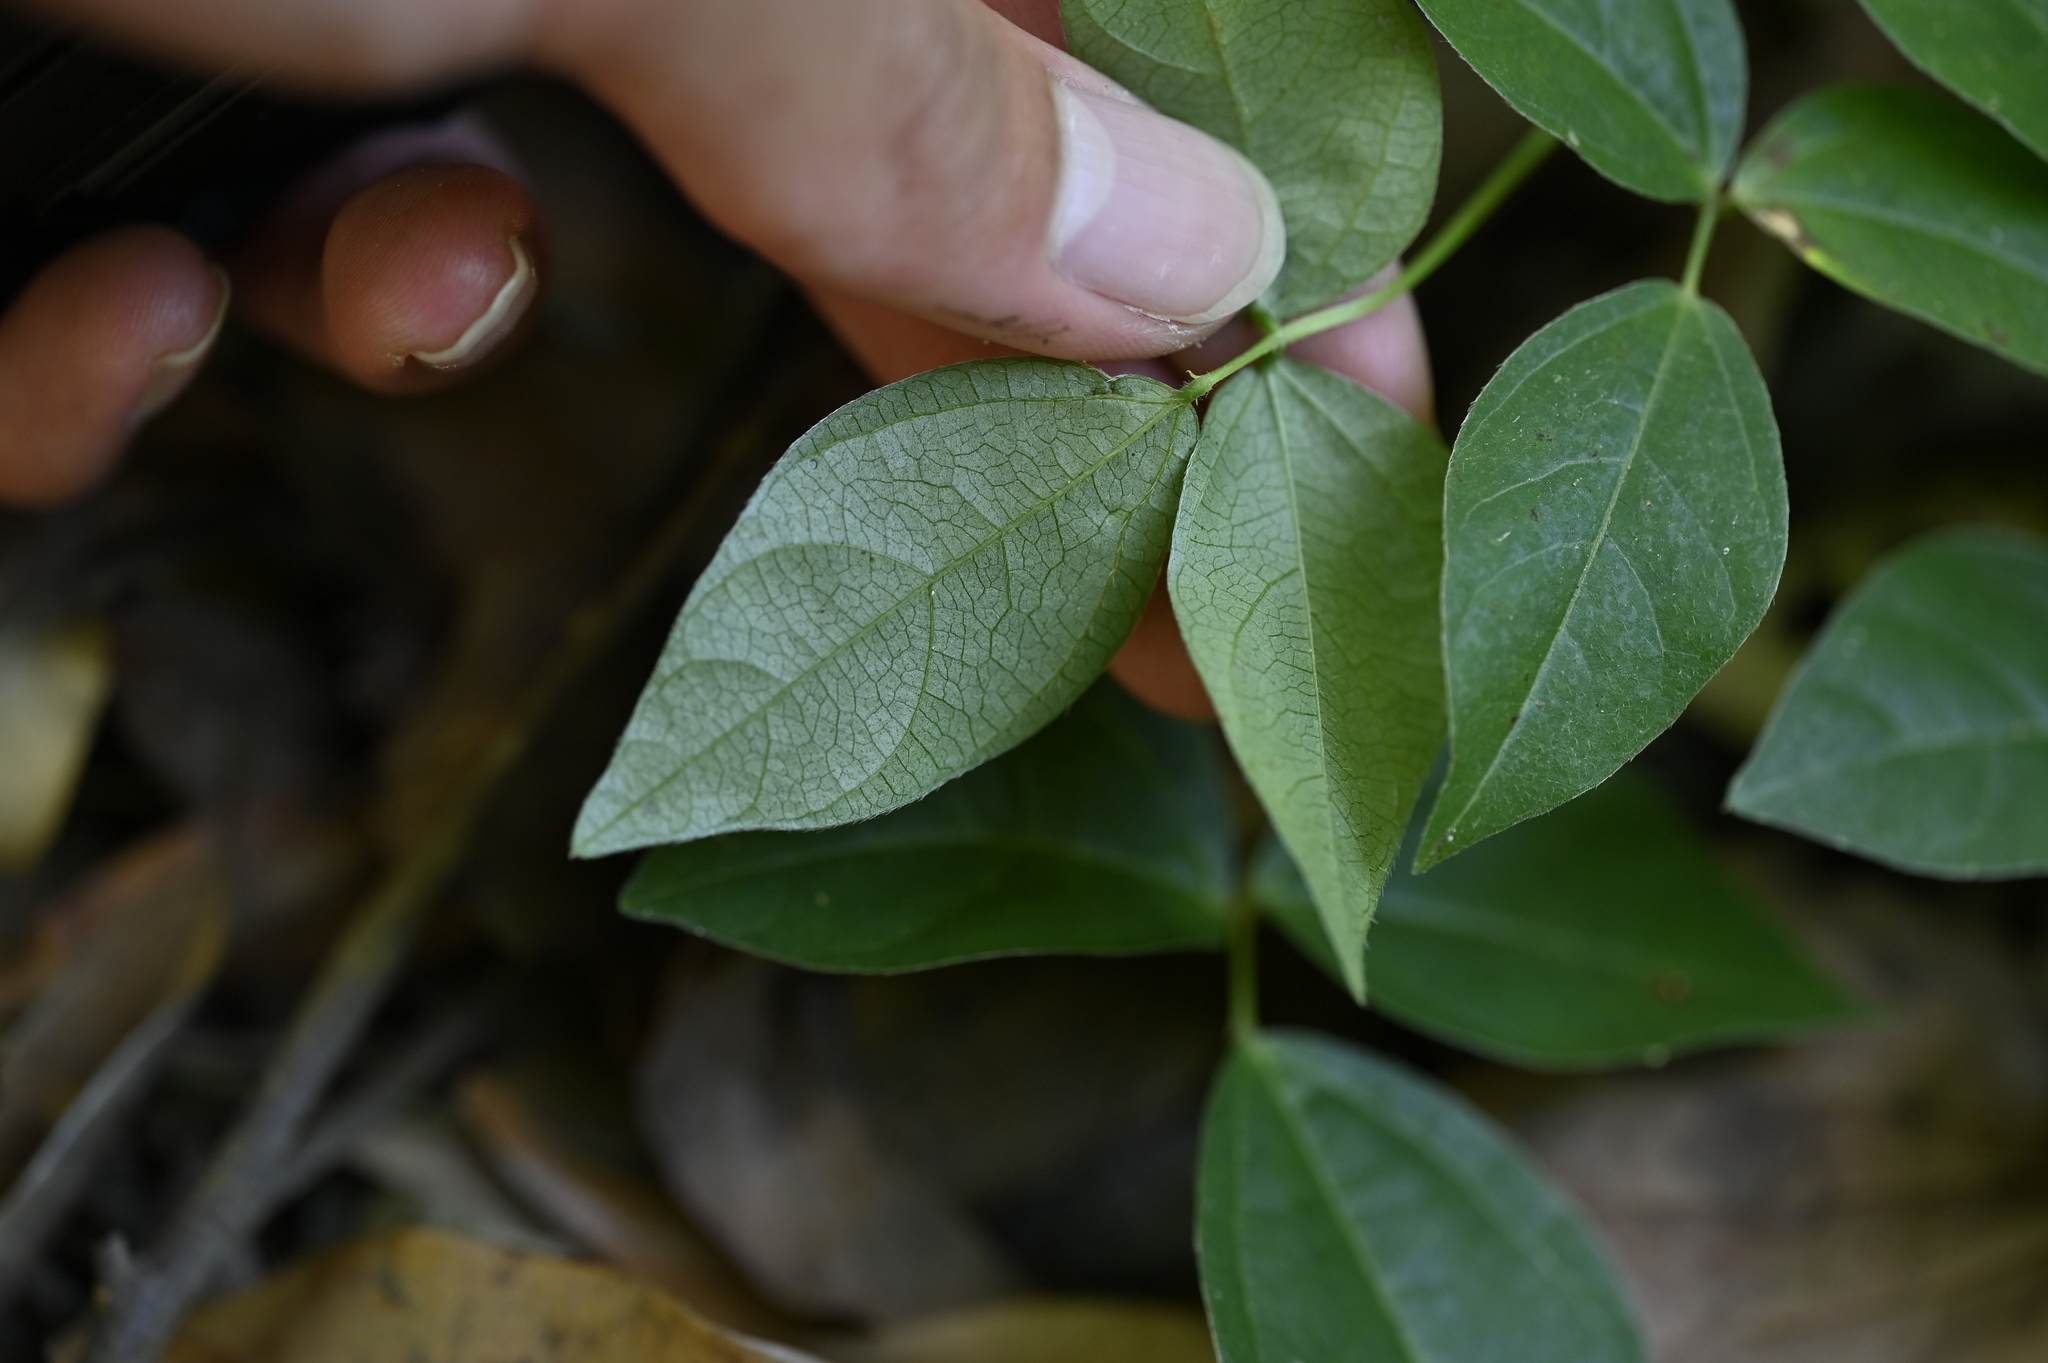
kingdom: Plantae
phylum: Tracheophyta
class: Magnoliopsida
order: Fabales
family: Fabaceae
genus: Vigna
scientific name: Vigna hosei
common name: Sarawak-bean
